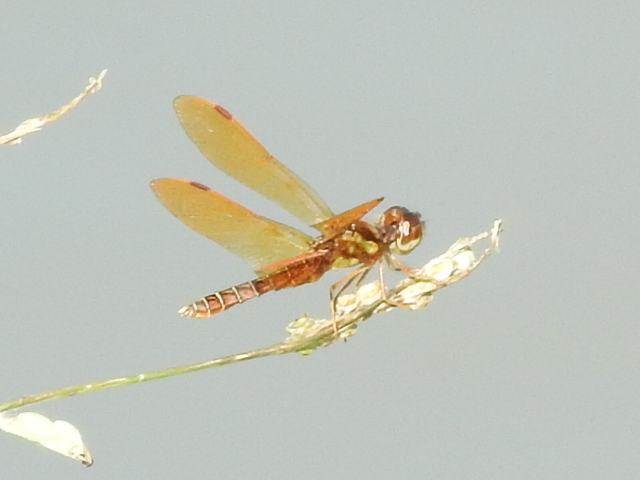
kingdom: Animalia
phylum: Arthropoda
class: Insecta
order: Odonata
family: Libellulidae
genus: Perithemis
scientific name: Perithemis tenera
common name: Eastern amberwing
